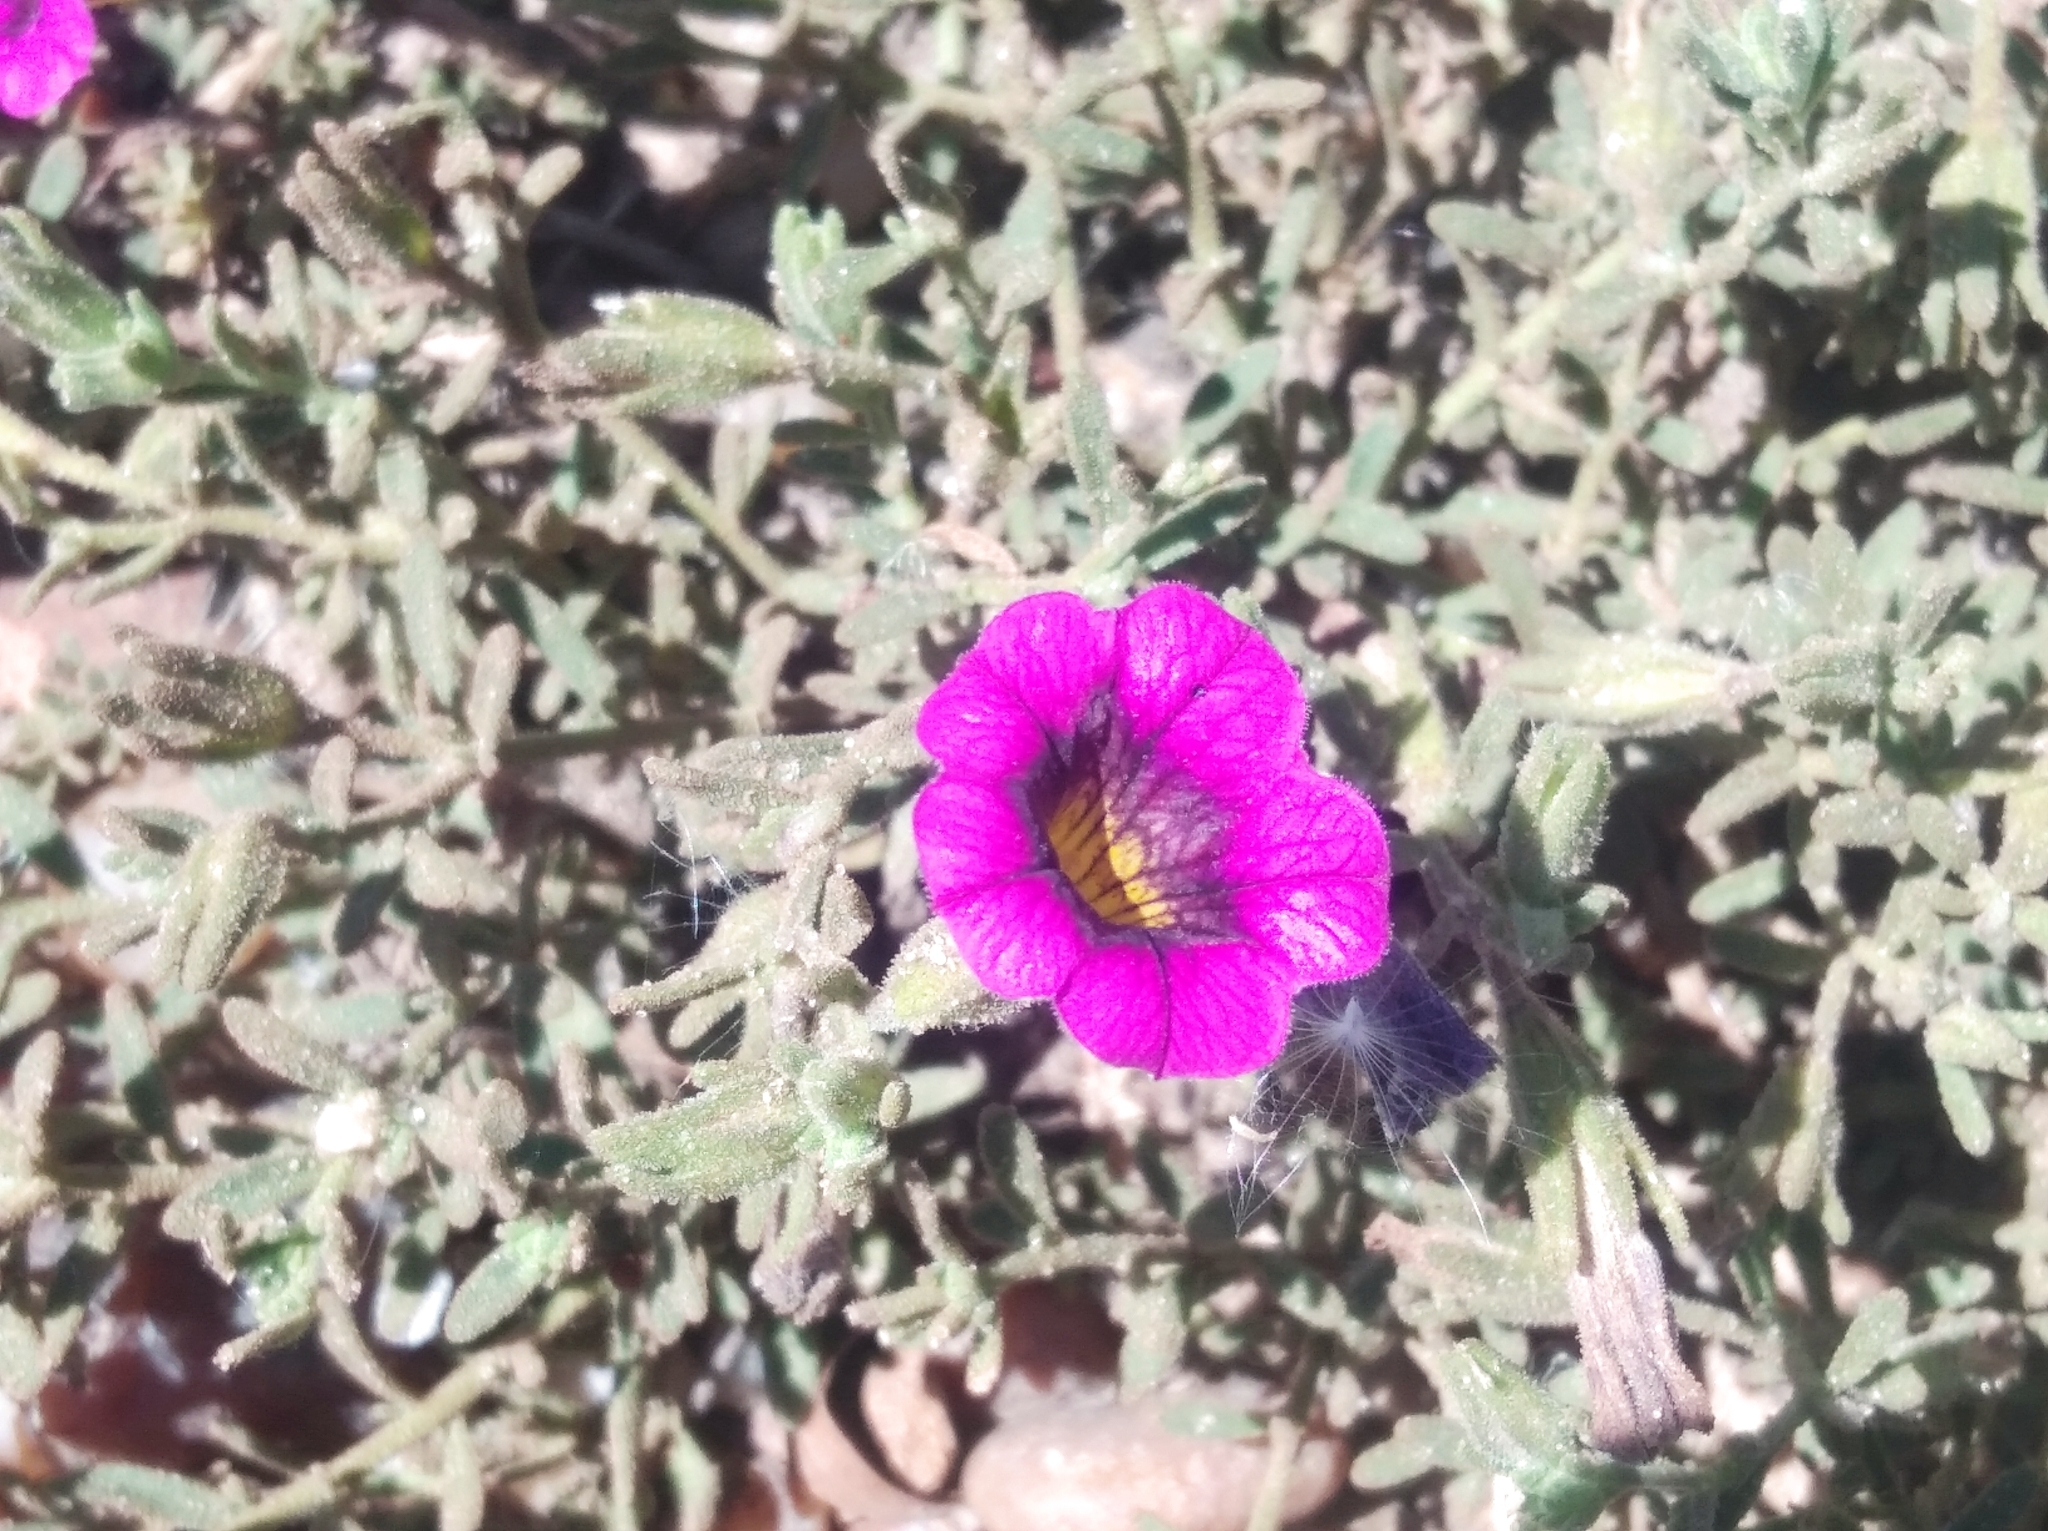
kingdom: Plantae
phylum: Tracheophyta
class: Magnoliopsida
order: Solanales
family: Solanaceae
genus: Calibrachoa
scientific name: Calibrachoa parviflora
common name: Seaside petunia
